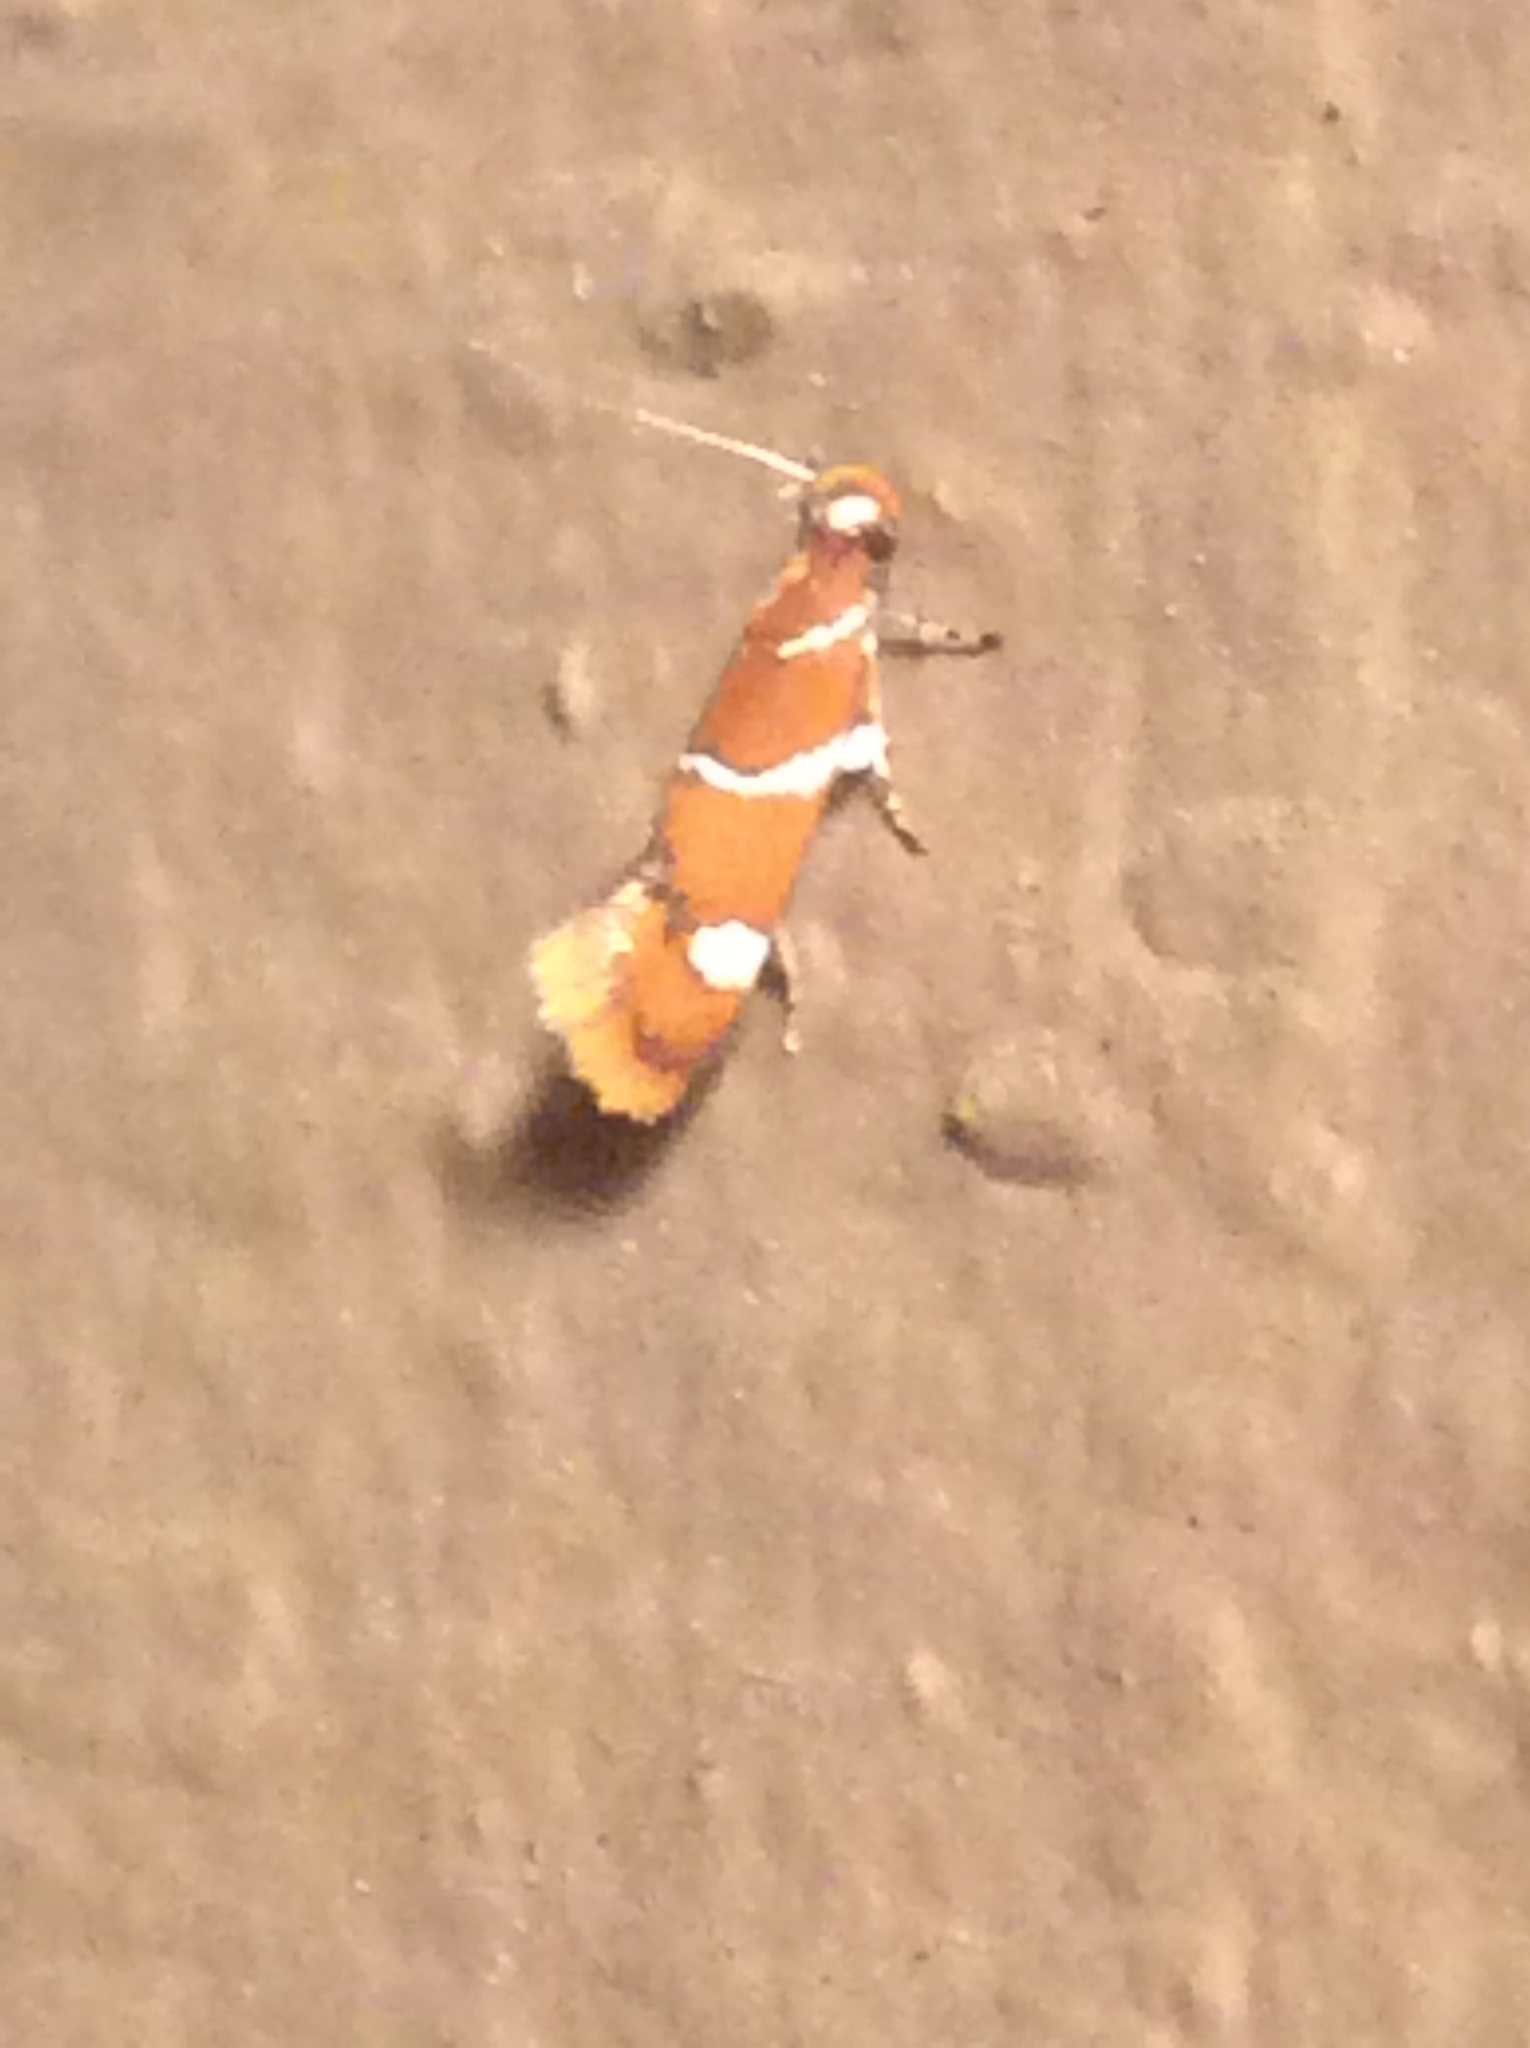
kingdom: Animalia
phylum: Arthropoda
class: Insecta
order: Lepidoptera
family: Oecophoridae
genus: Promalactis
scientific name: Promalactis suzukiella
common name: Moth
